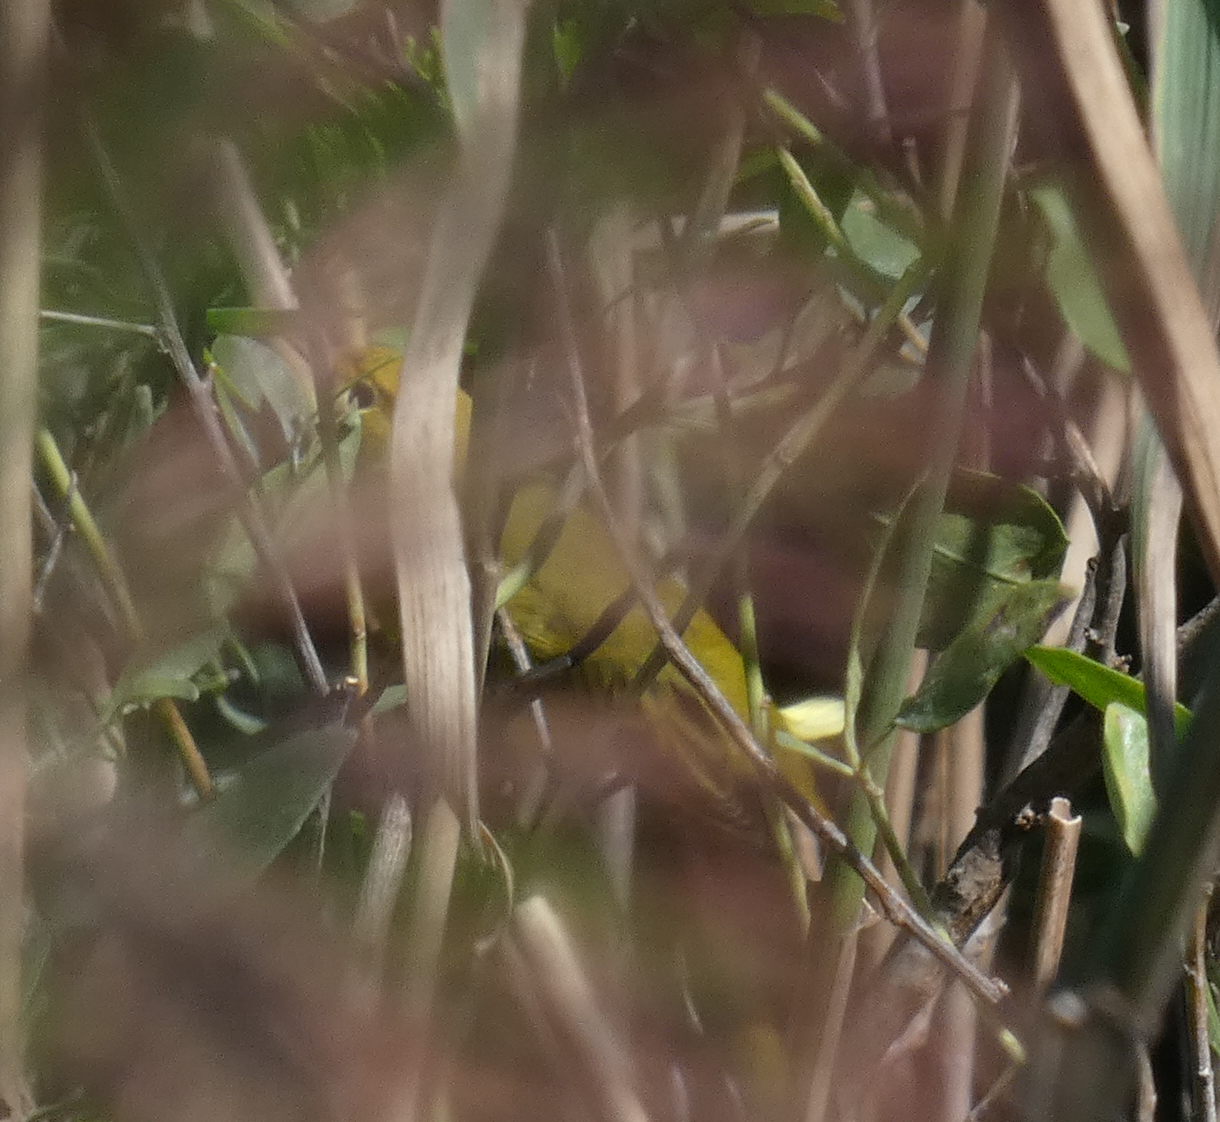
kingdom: Animalia
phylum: Chordata
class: Aves
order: Passeriformes
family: Parulidae
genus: Setophaga
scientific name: Setophaga petechia
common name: Yellow warbler
